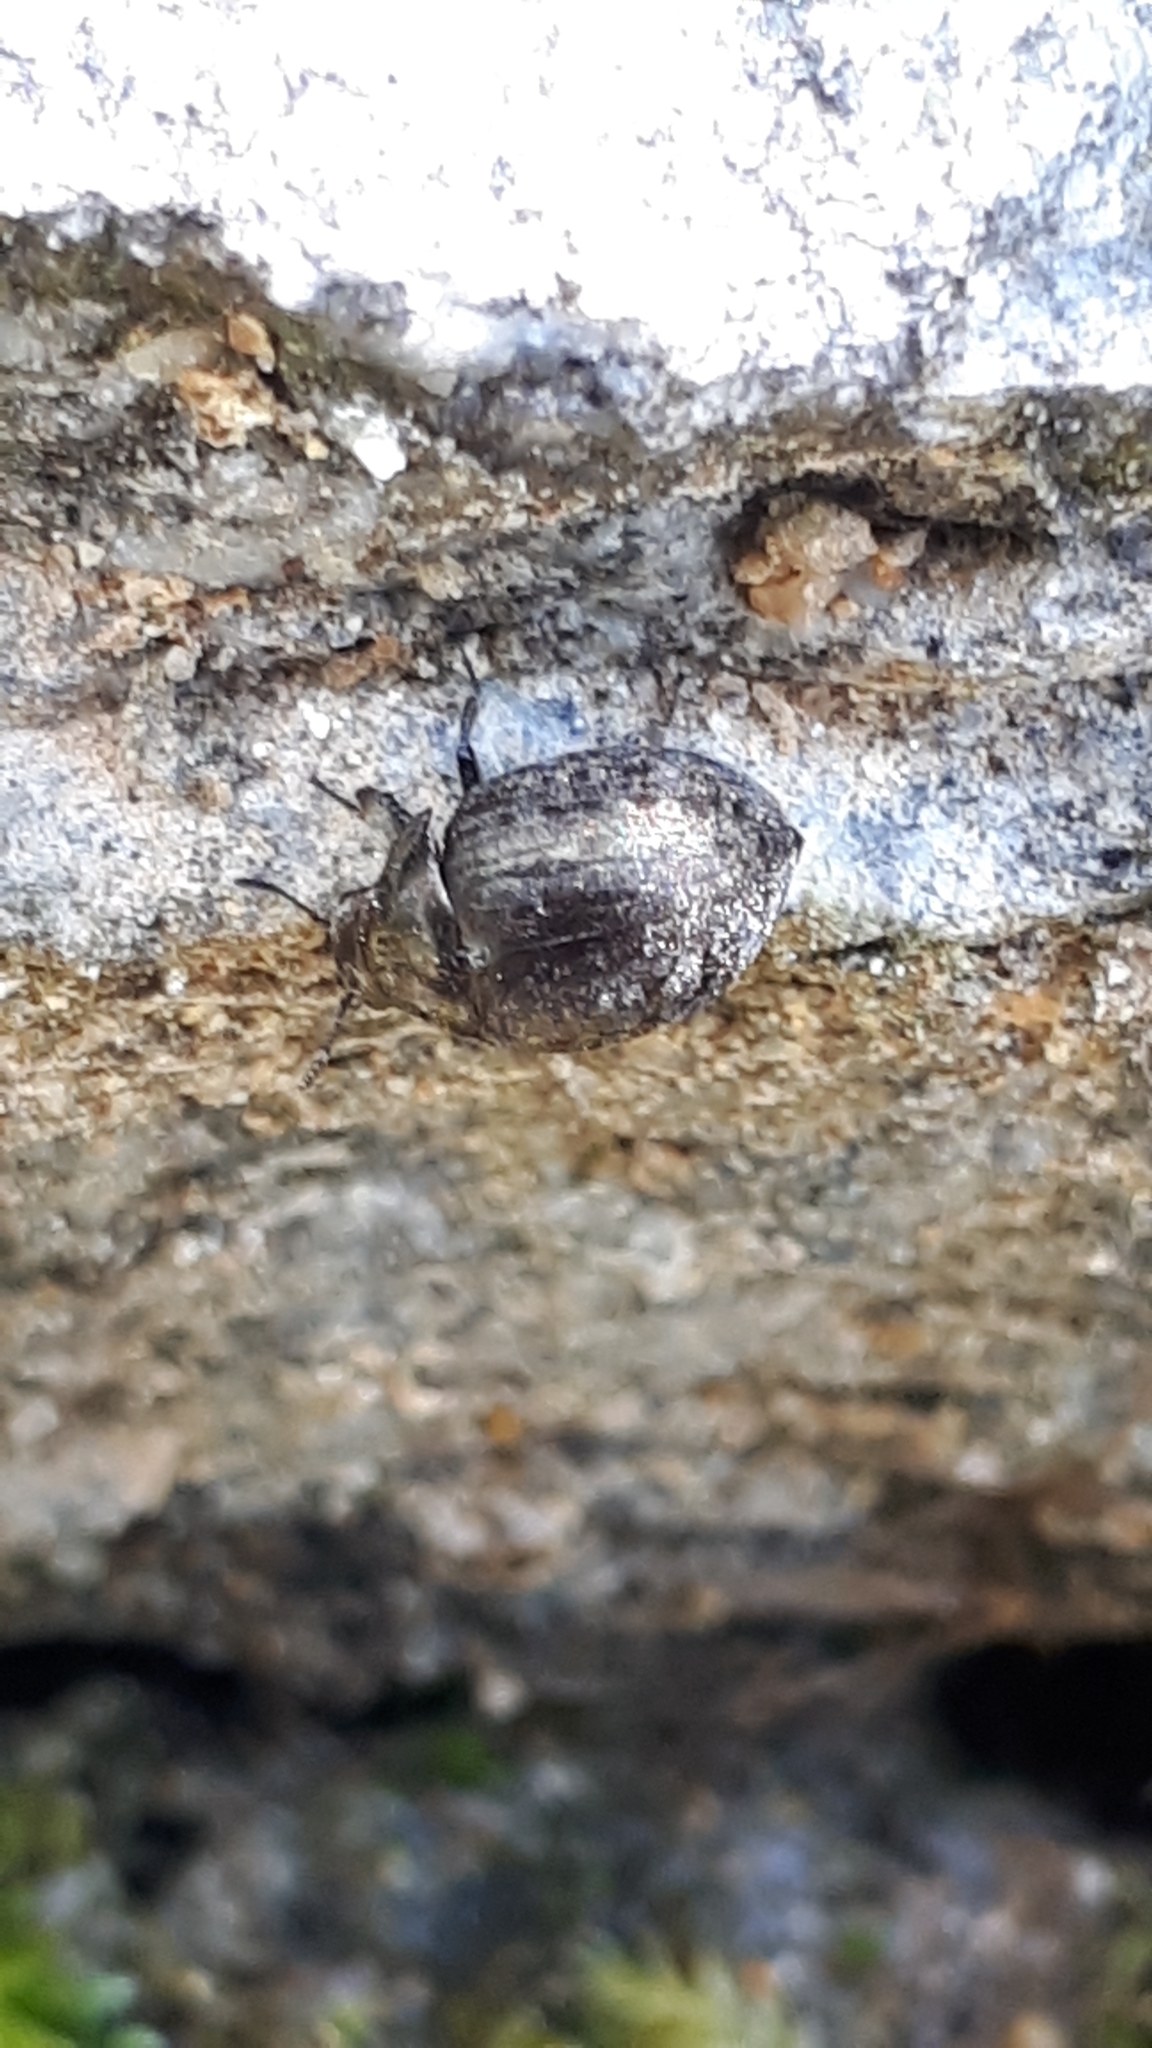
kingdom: Animalia
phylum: Arthropoda
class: Insecta
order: Coleoptera
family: Byrrhidae
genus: Cytilus
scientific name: Cytilus sericeus
